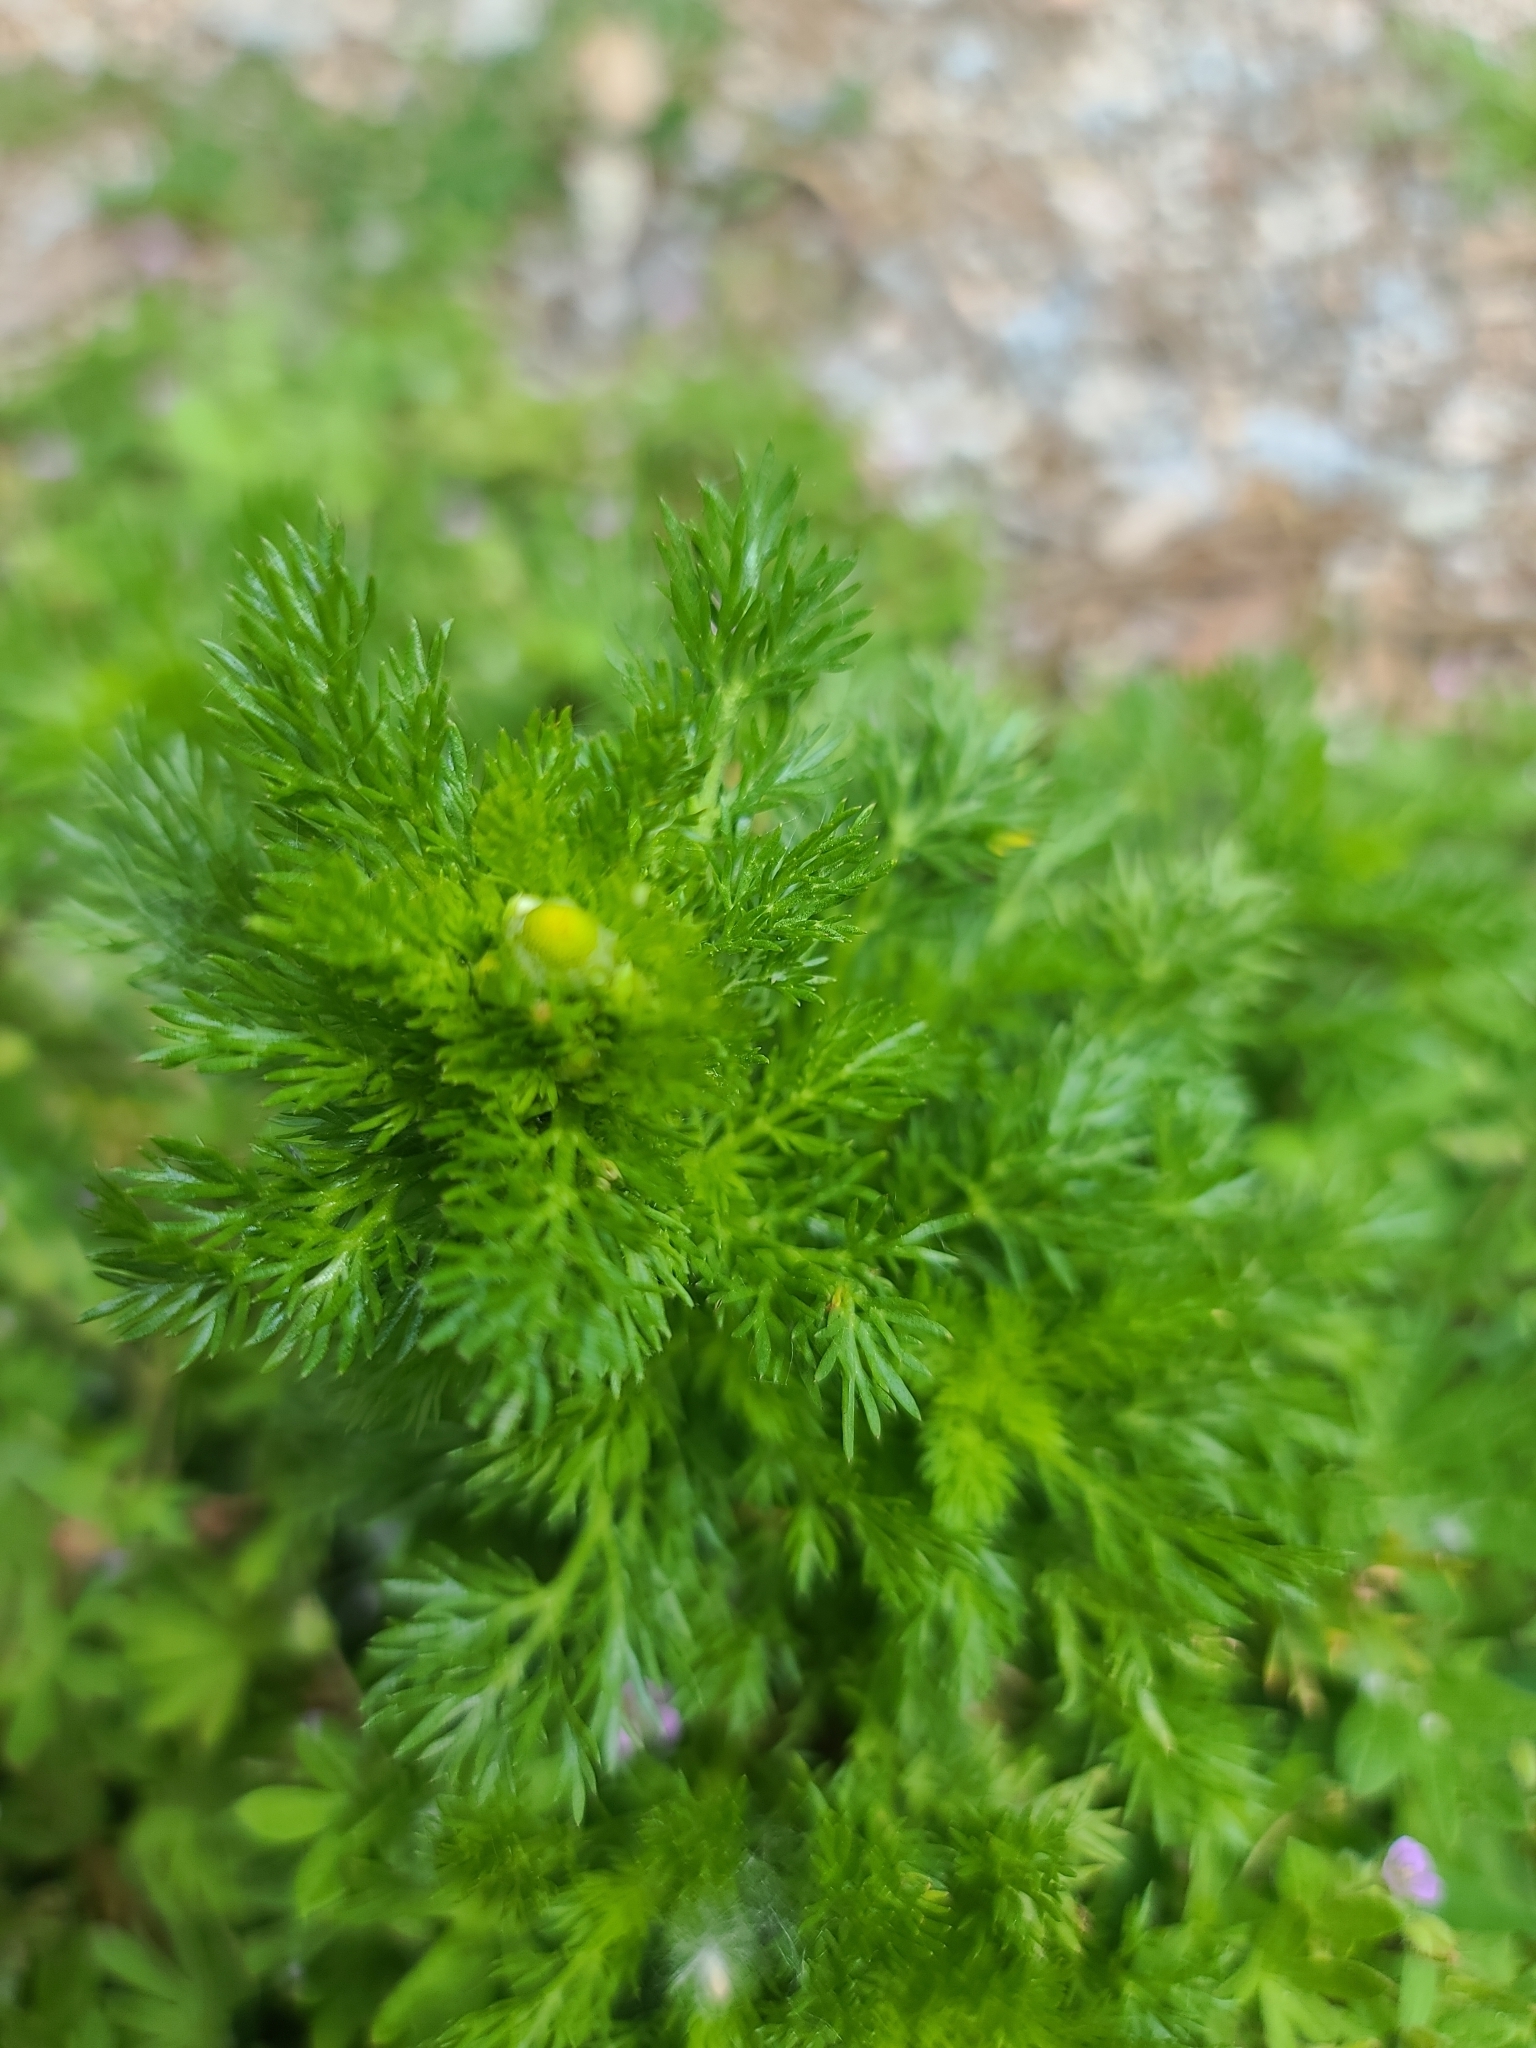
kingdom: Plantae
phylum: Tracheophyta
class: Magnoliopsida
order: Asterales
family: Asteraceae
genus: Matricaria
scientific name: Matricaria discoidea
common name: Disc mayweed
